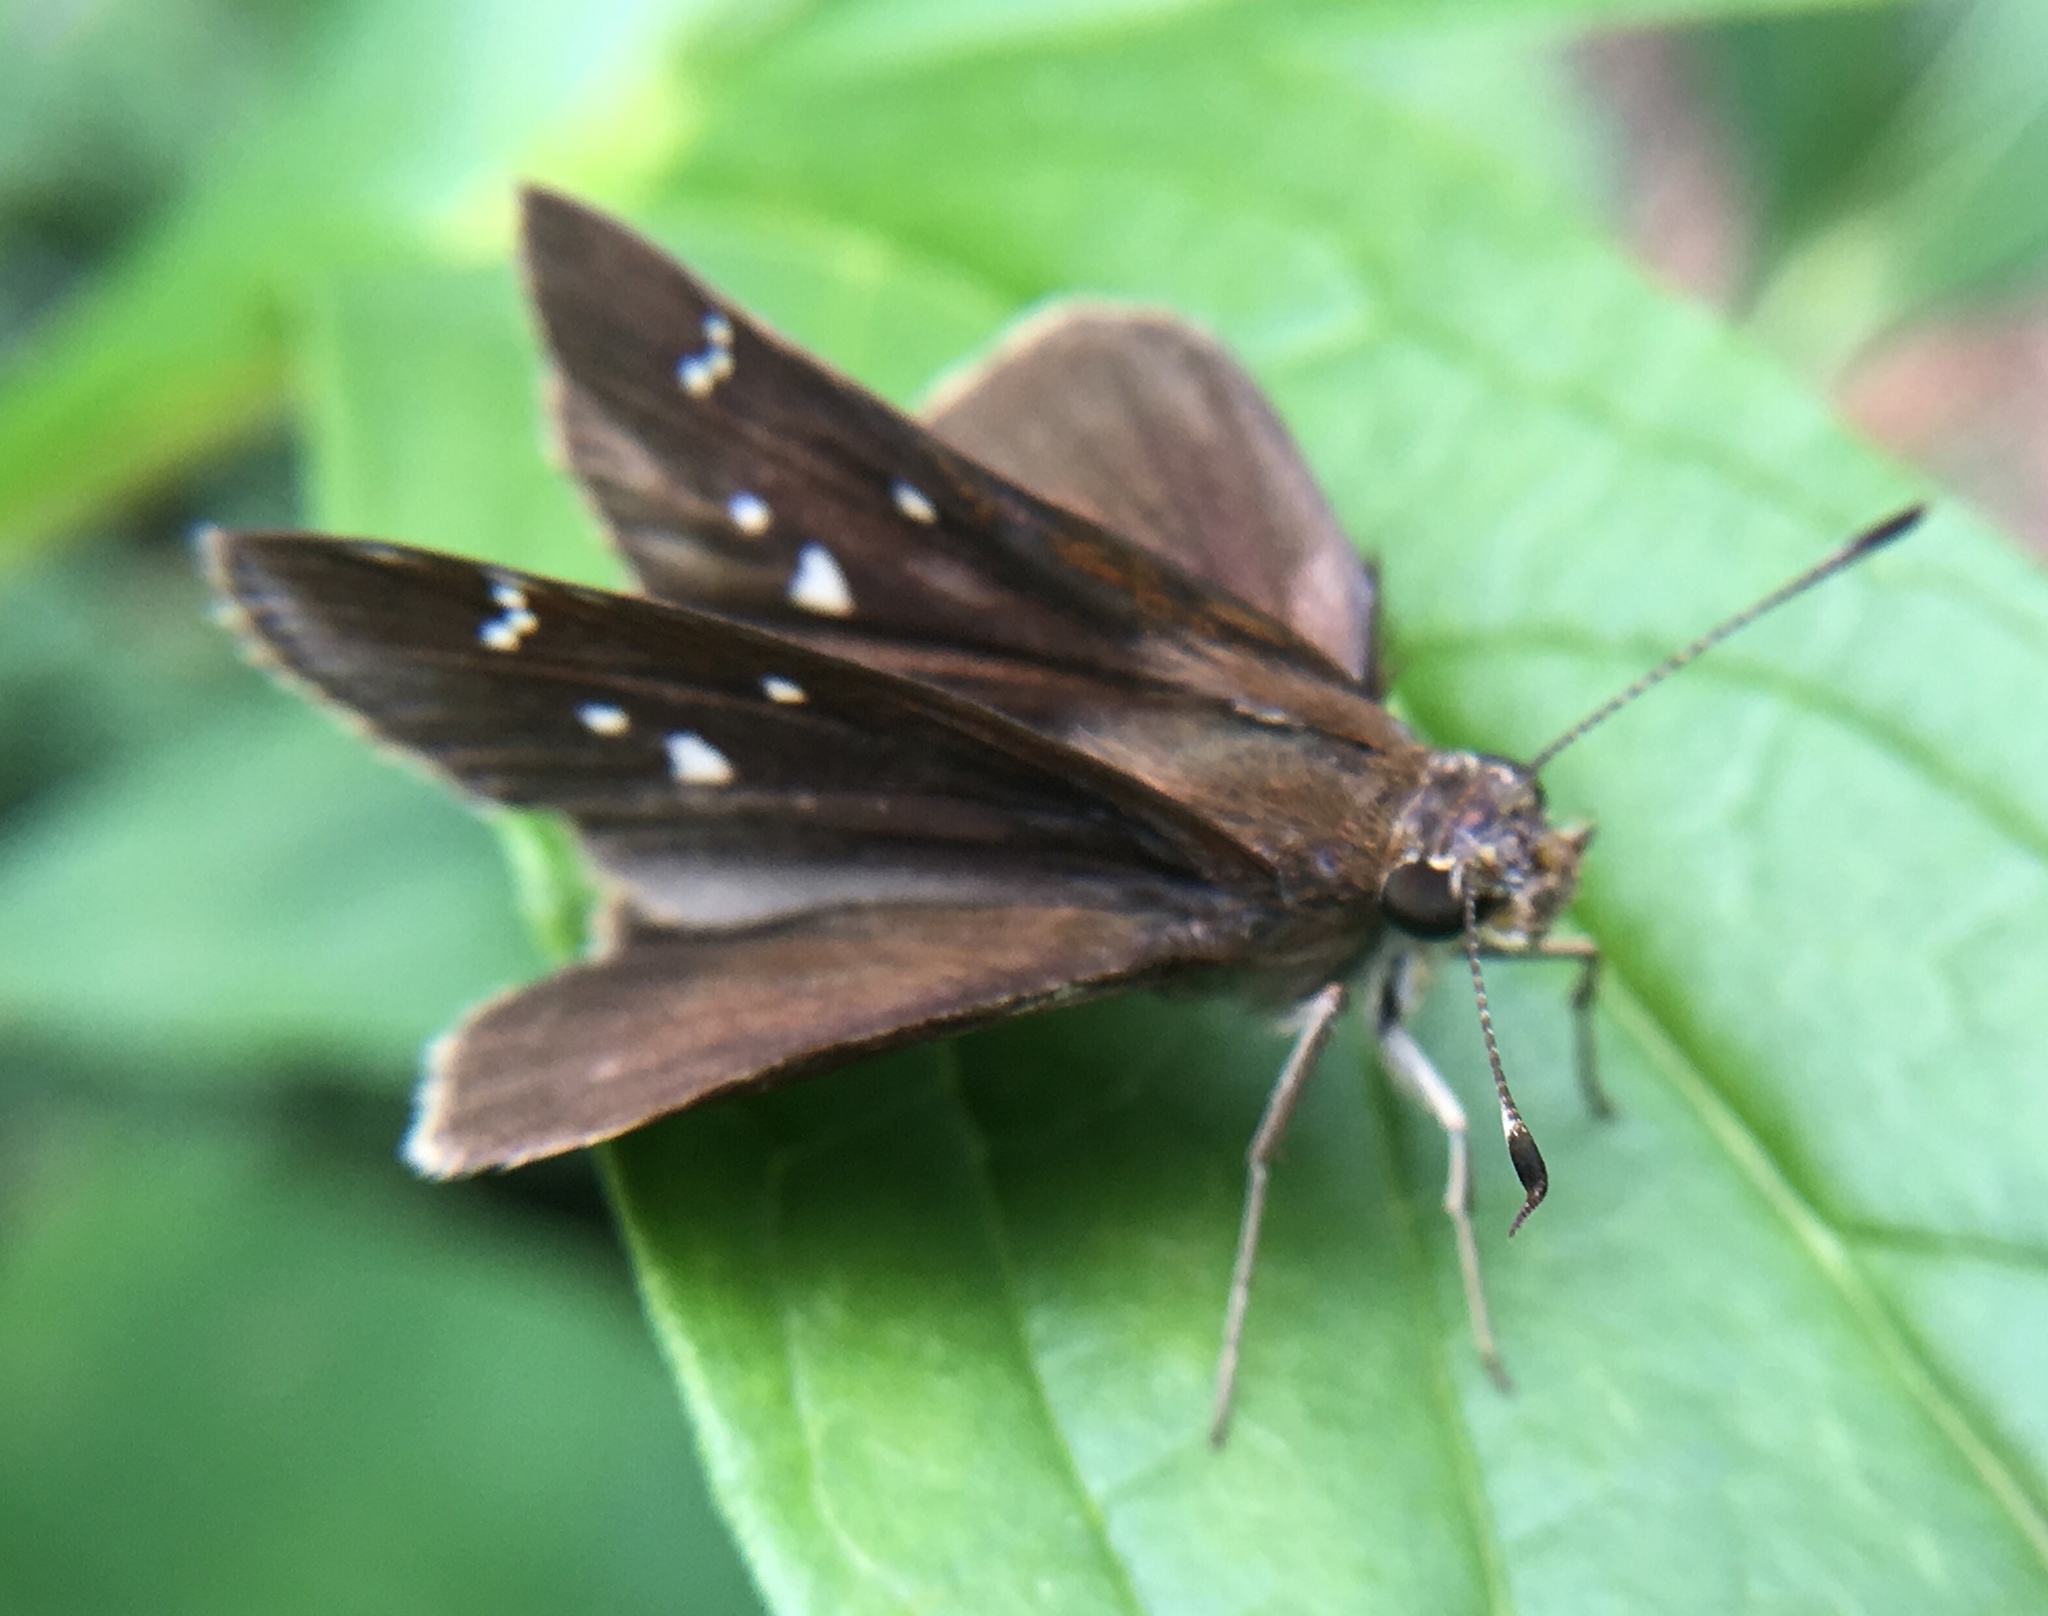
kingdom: Animalia
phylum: Arthropoda
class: Insecta
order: Lepidoptera
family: Hesperiidae
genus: Lerema
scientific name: Lerema accius
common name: Clouded skipper
